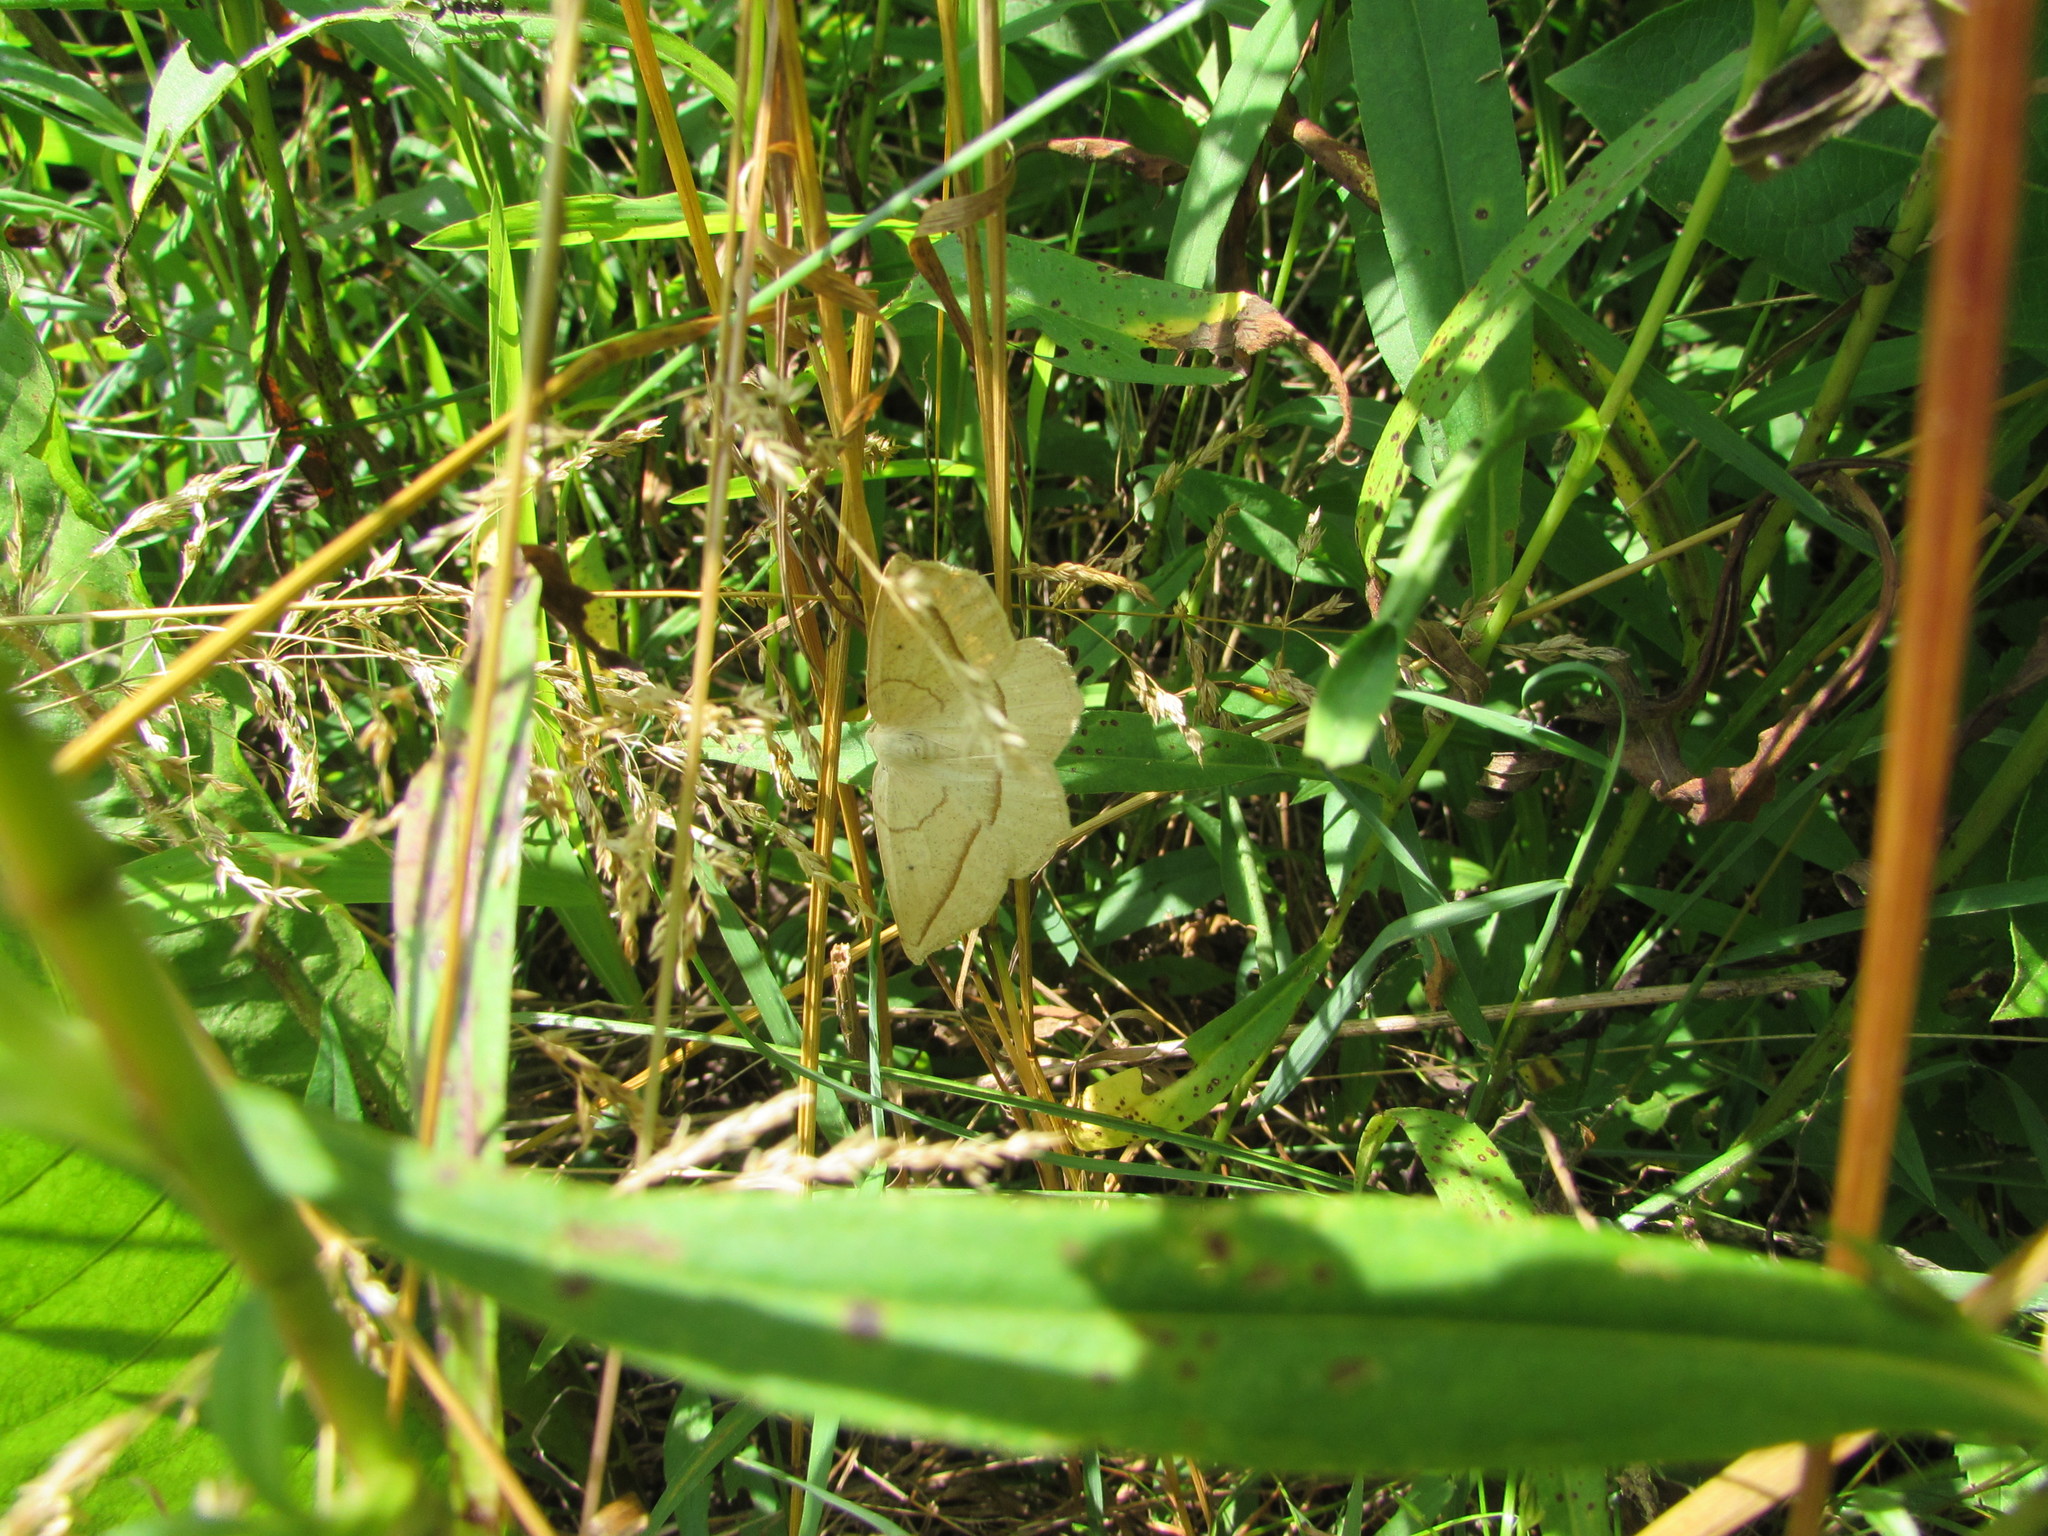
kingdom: Animalia
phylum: Arthropoda
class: Insecta
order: Lepidoptera
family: Geometridae
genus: Eusarca
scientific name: Eusarca confusaria
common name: Confused eusarca
